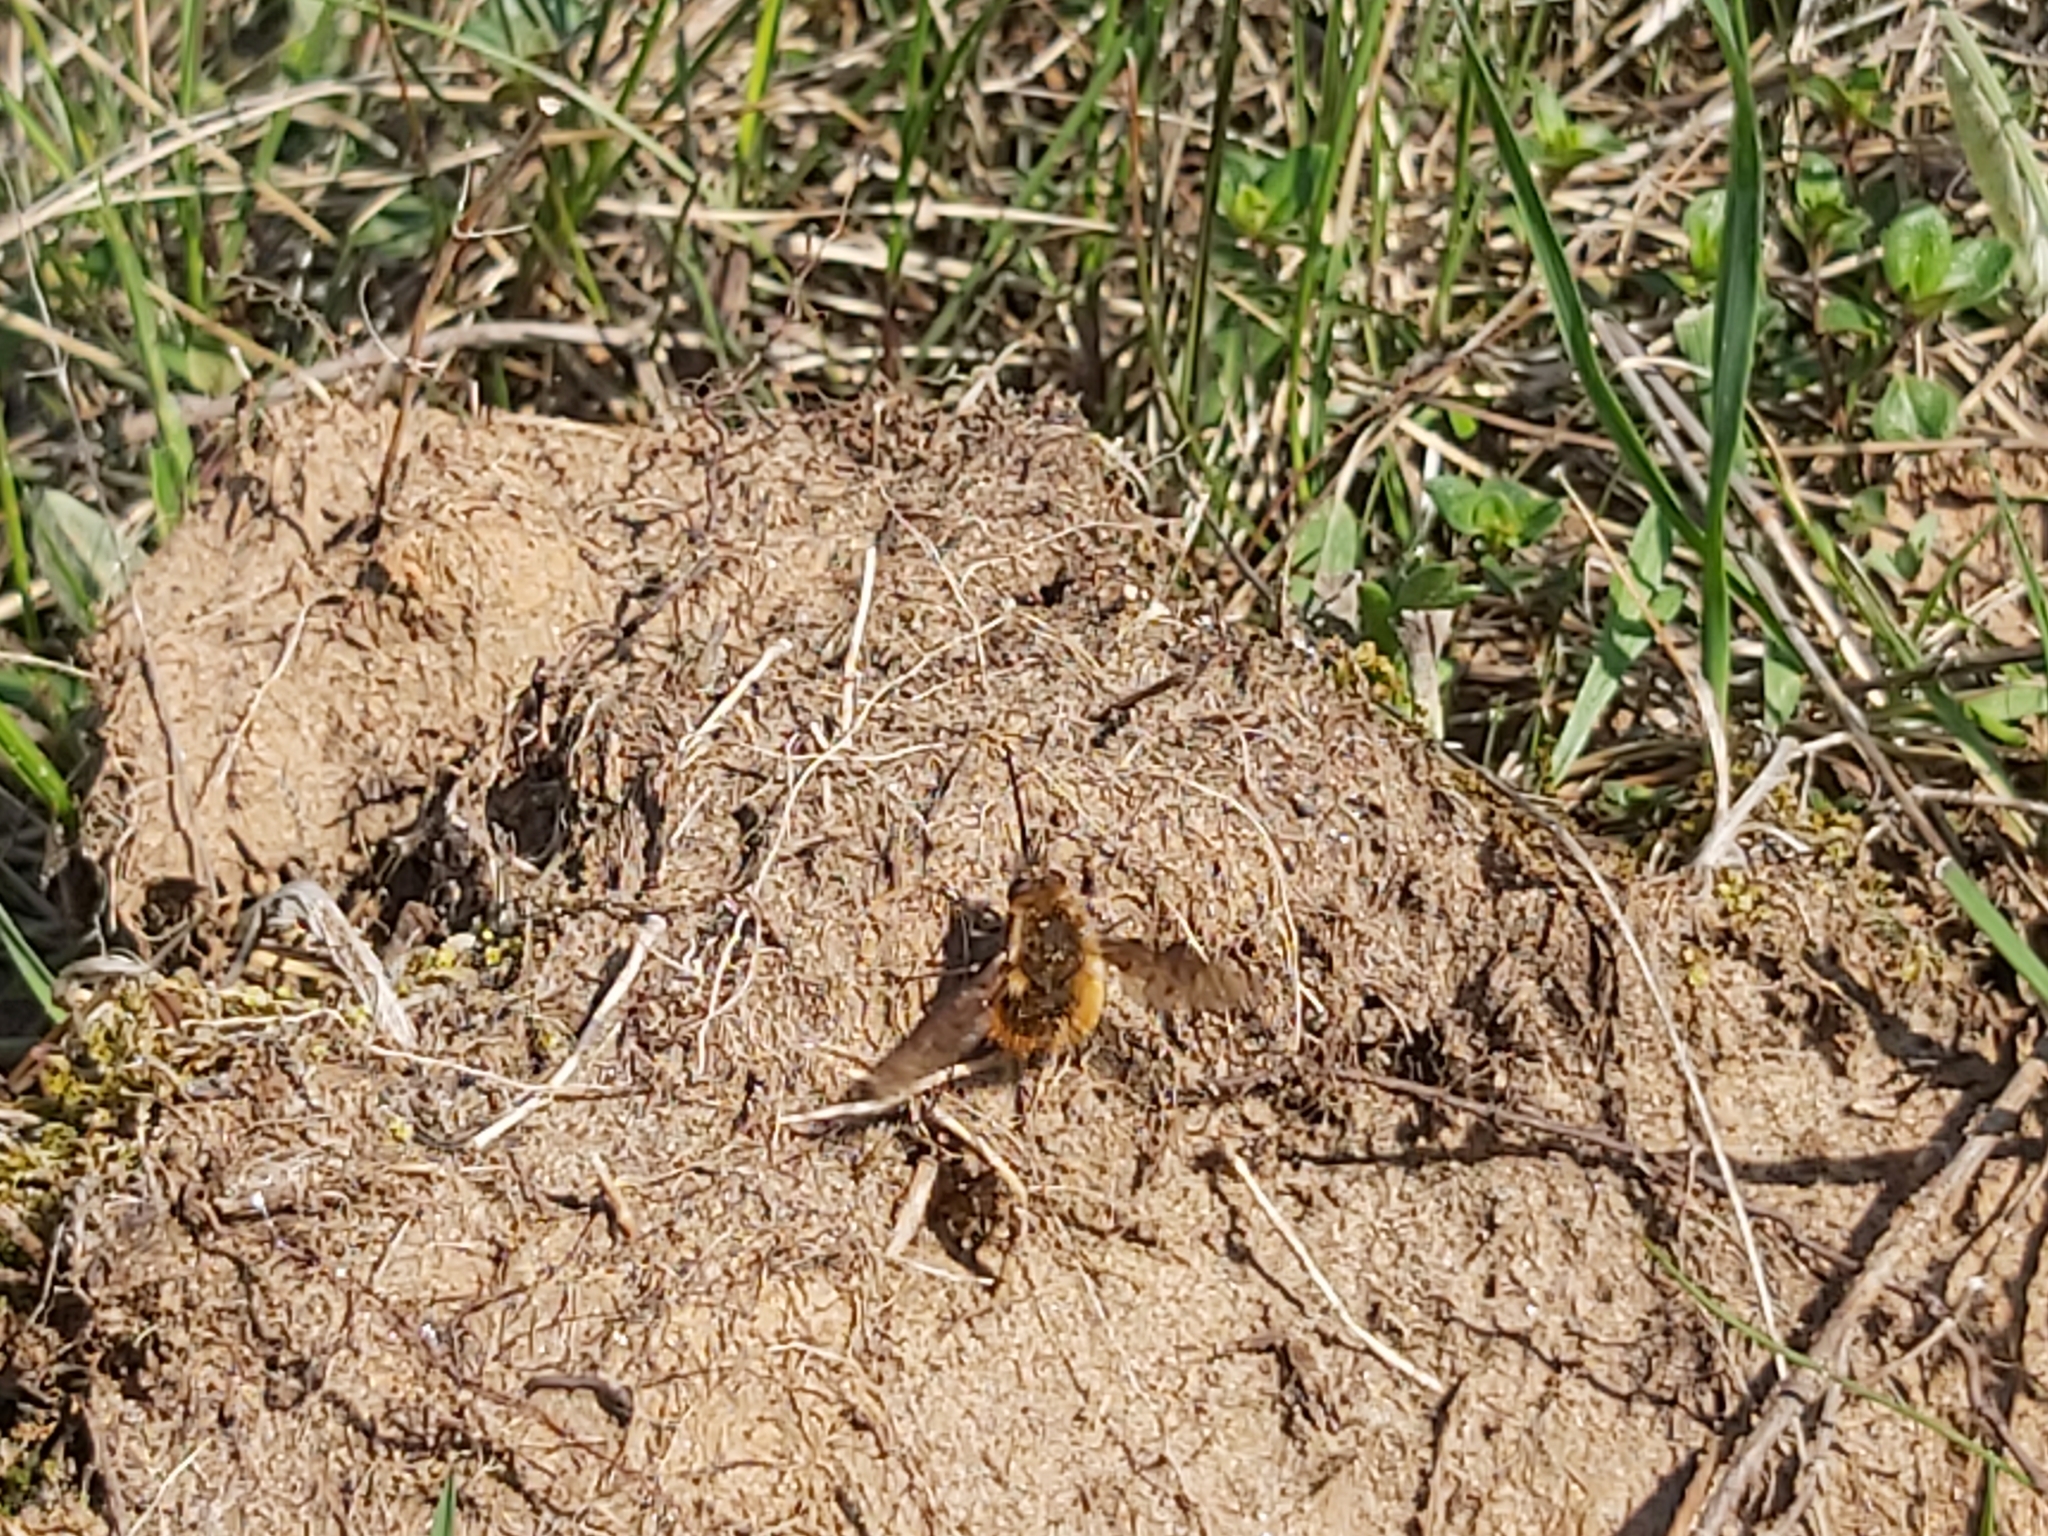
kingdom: Animalia
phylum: Arthropoda
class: Insecta
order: Diptera
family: Bombyliidae
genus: Bombylius
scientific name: Bombylius discolor
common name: Dotted bee-fly
